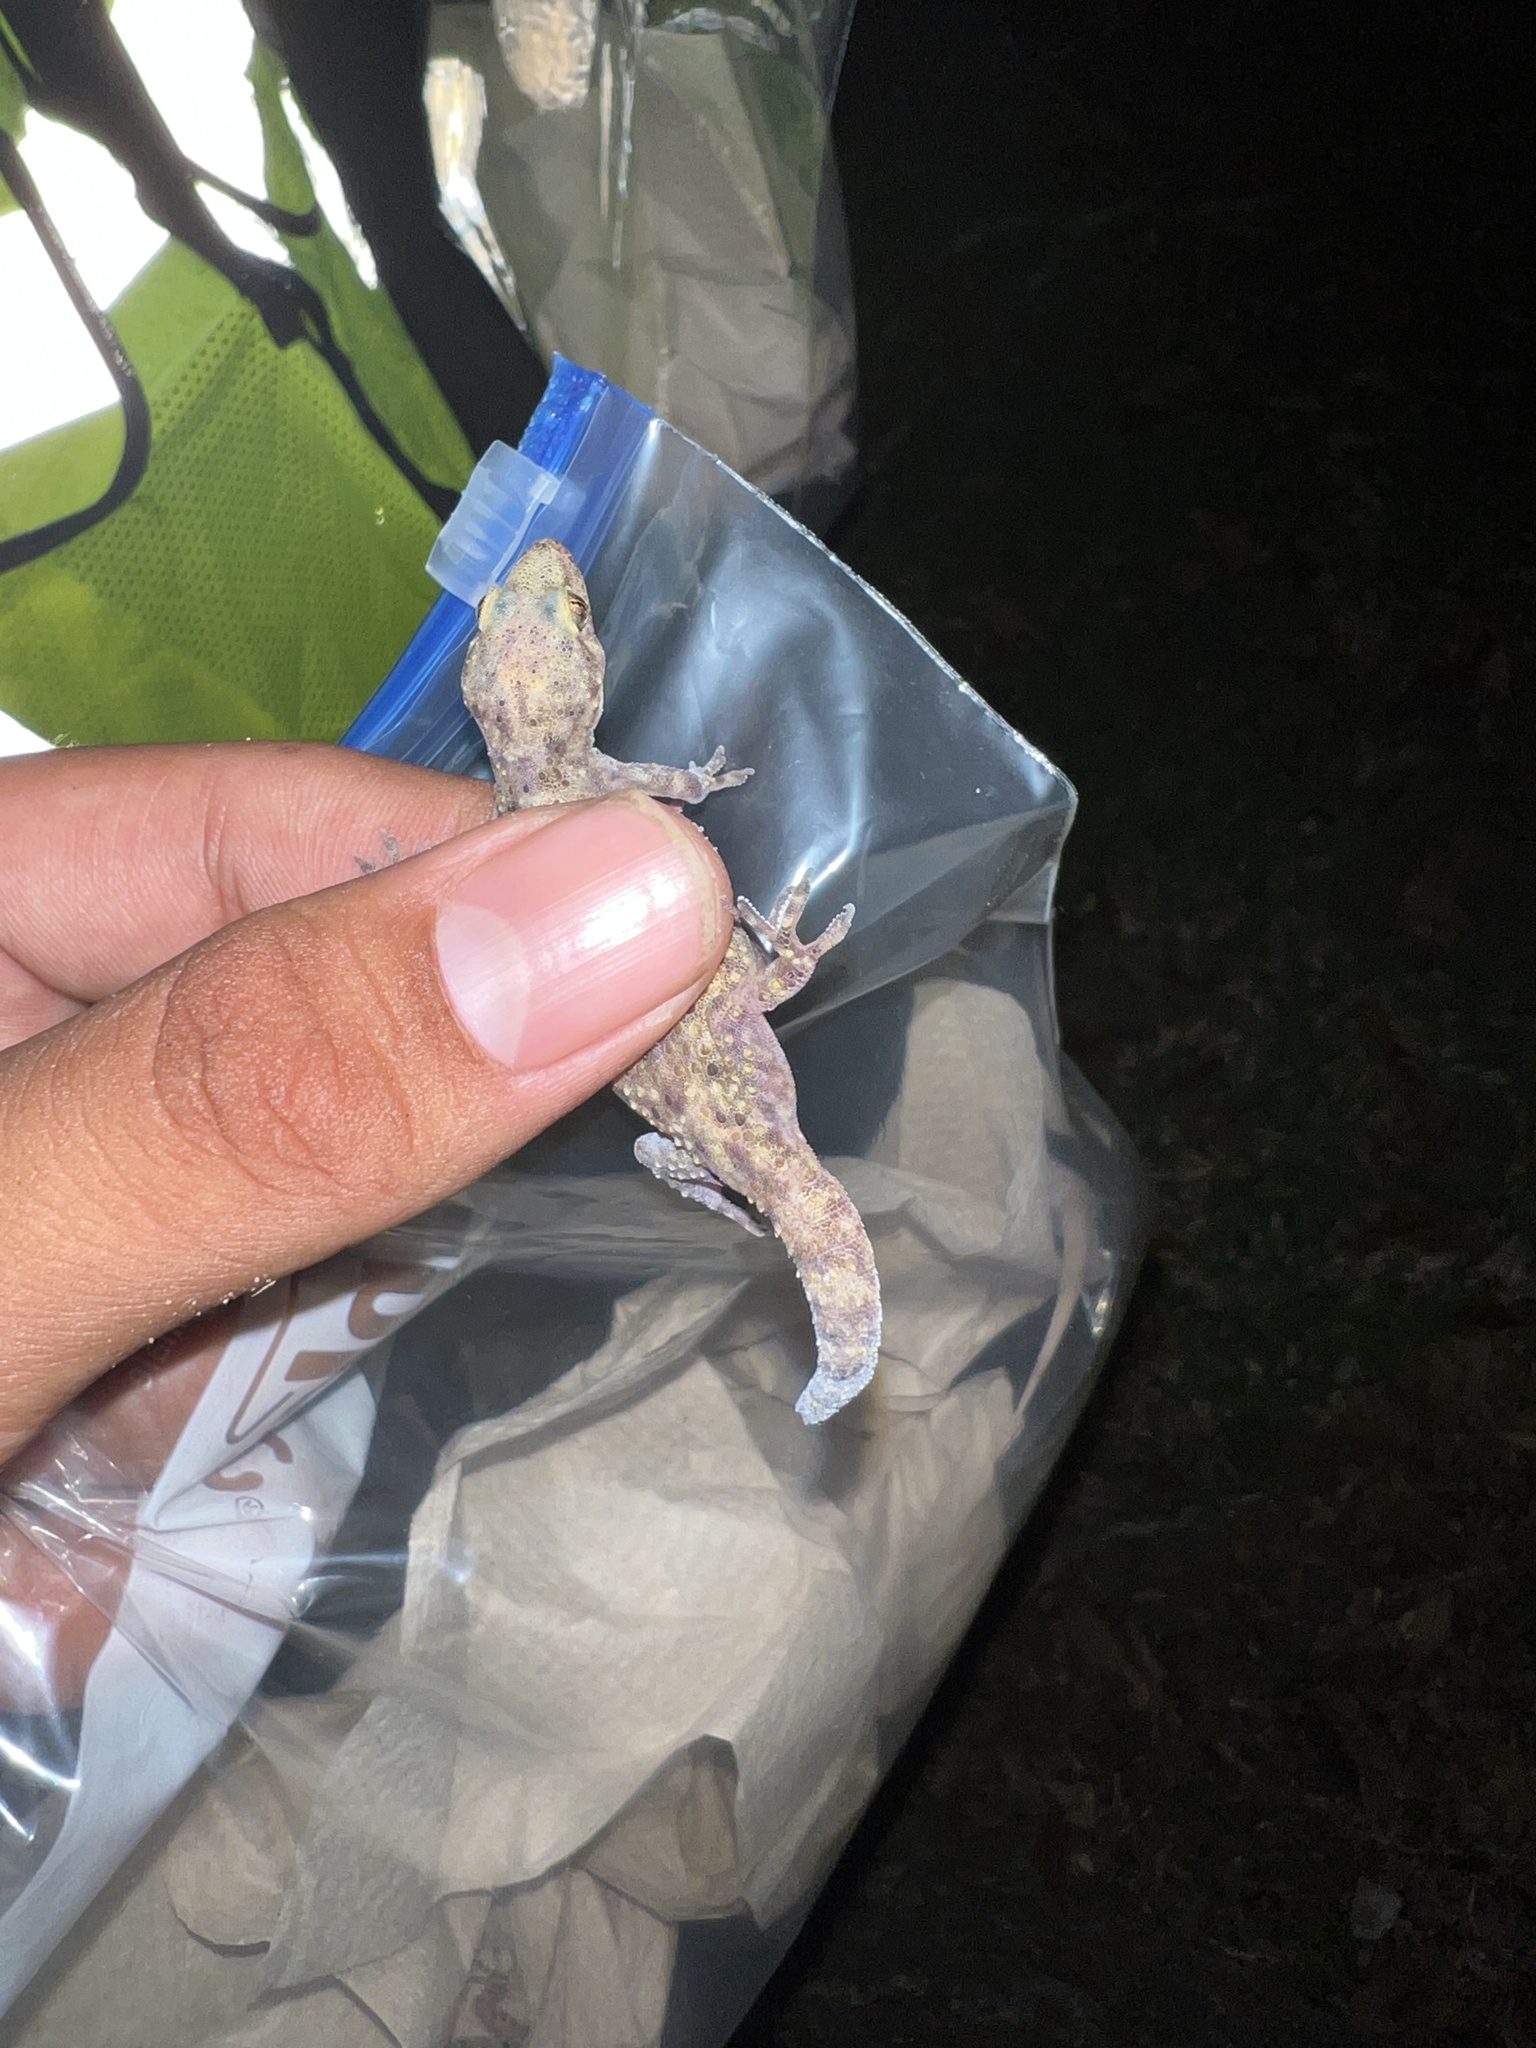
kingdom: Animalia
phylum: Chordata
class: Squamata
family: Gekkonidae
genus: Hemidactylus
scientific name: Hemidactylus turcicus
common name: Turkish gecko
